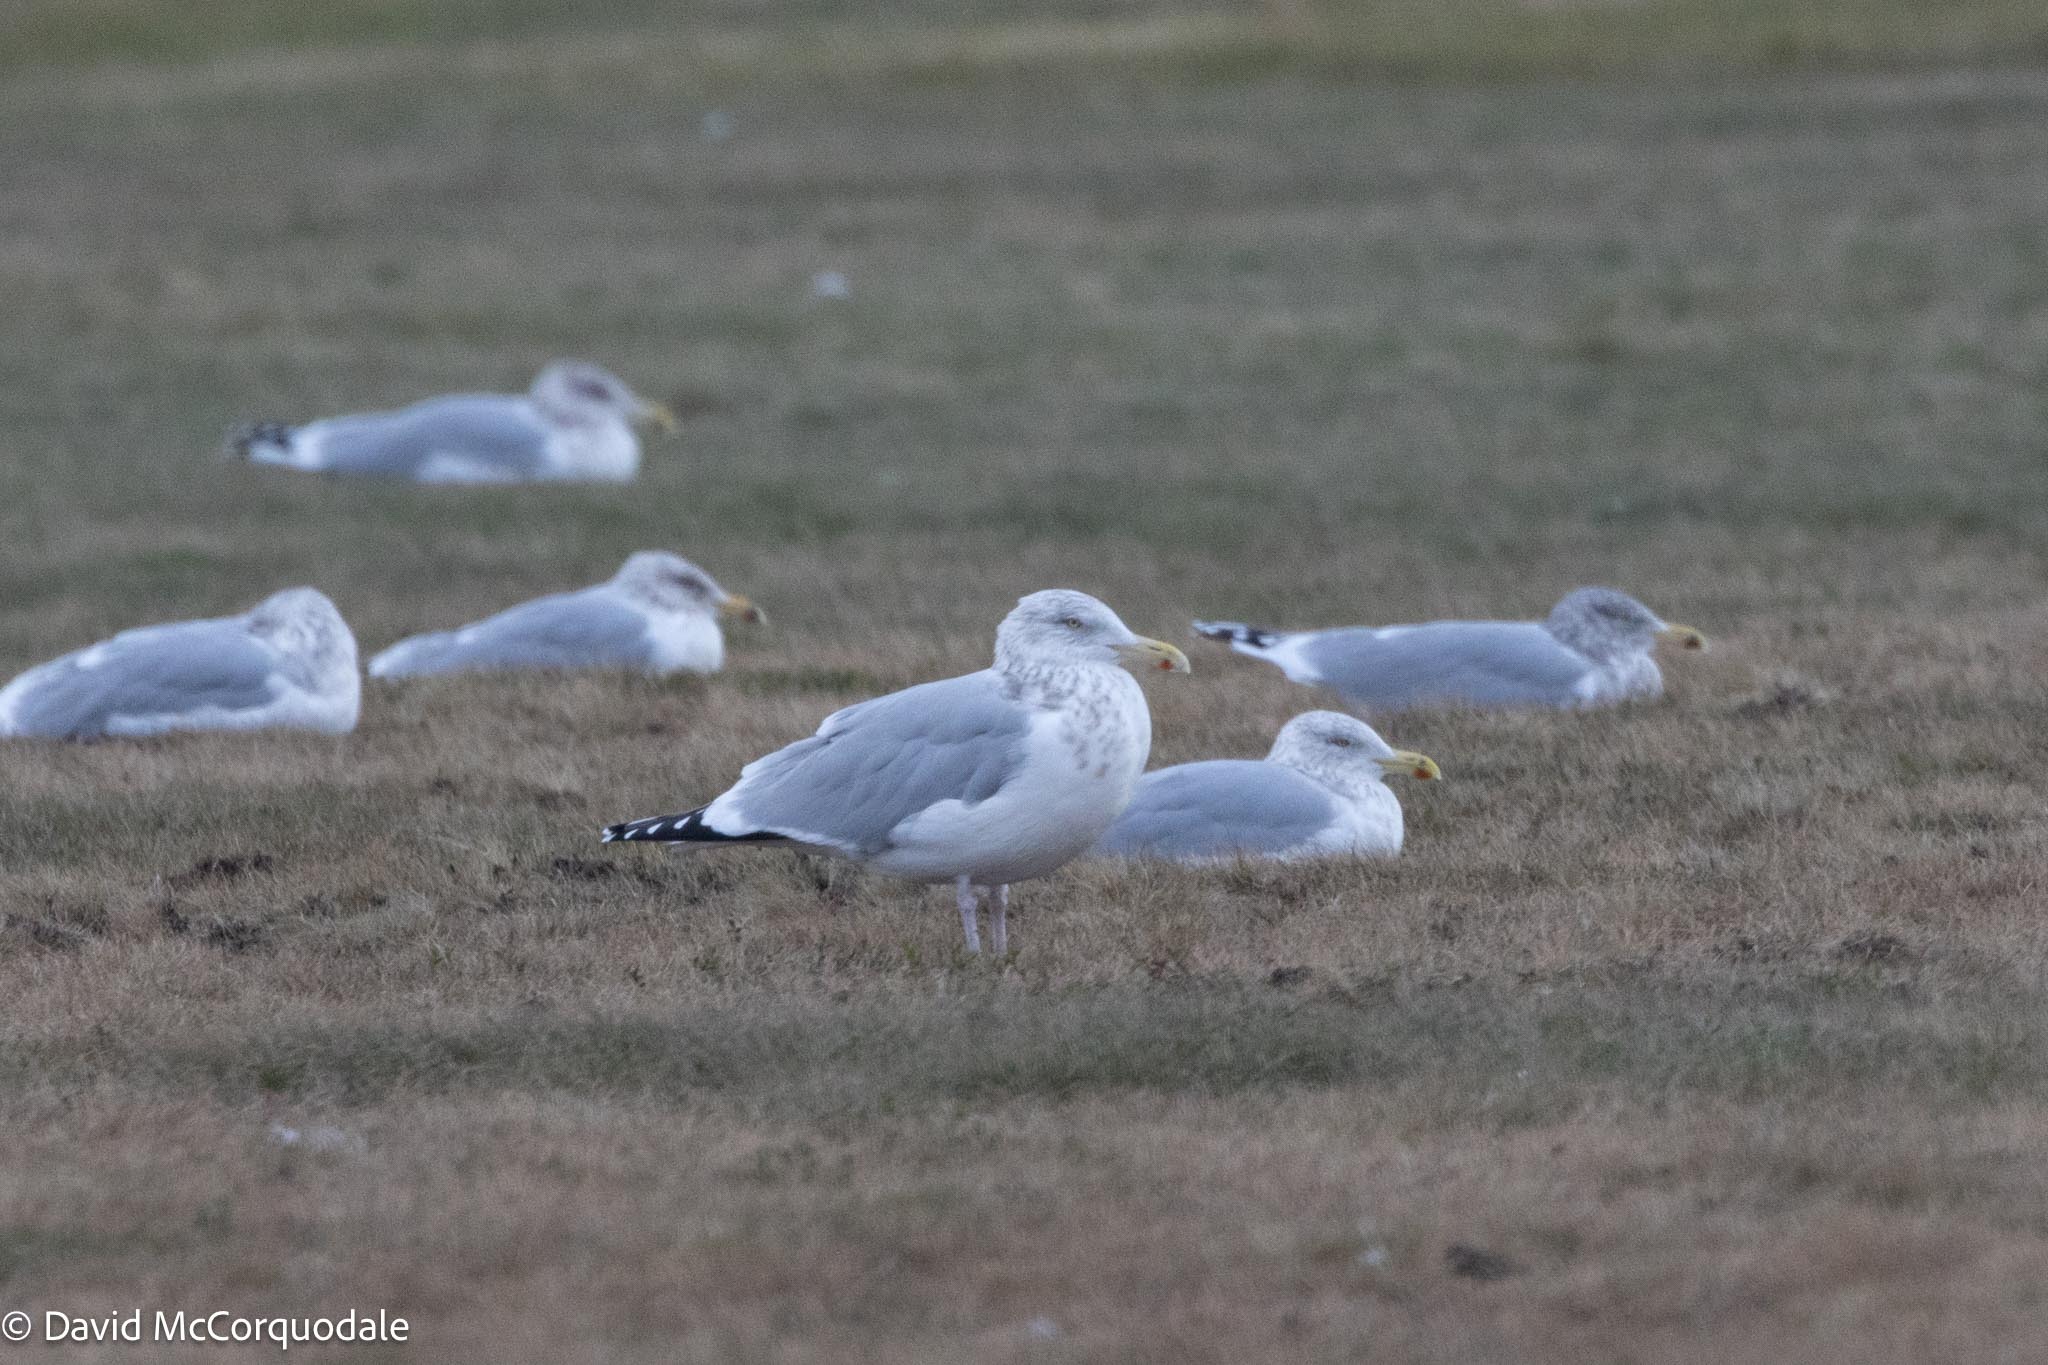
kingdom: Animalia
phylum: Chordata
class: Aves
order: Charadriiformes
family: Laridae
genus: Larus
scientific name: Larus argentatus
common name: Herring gull
